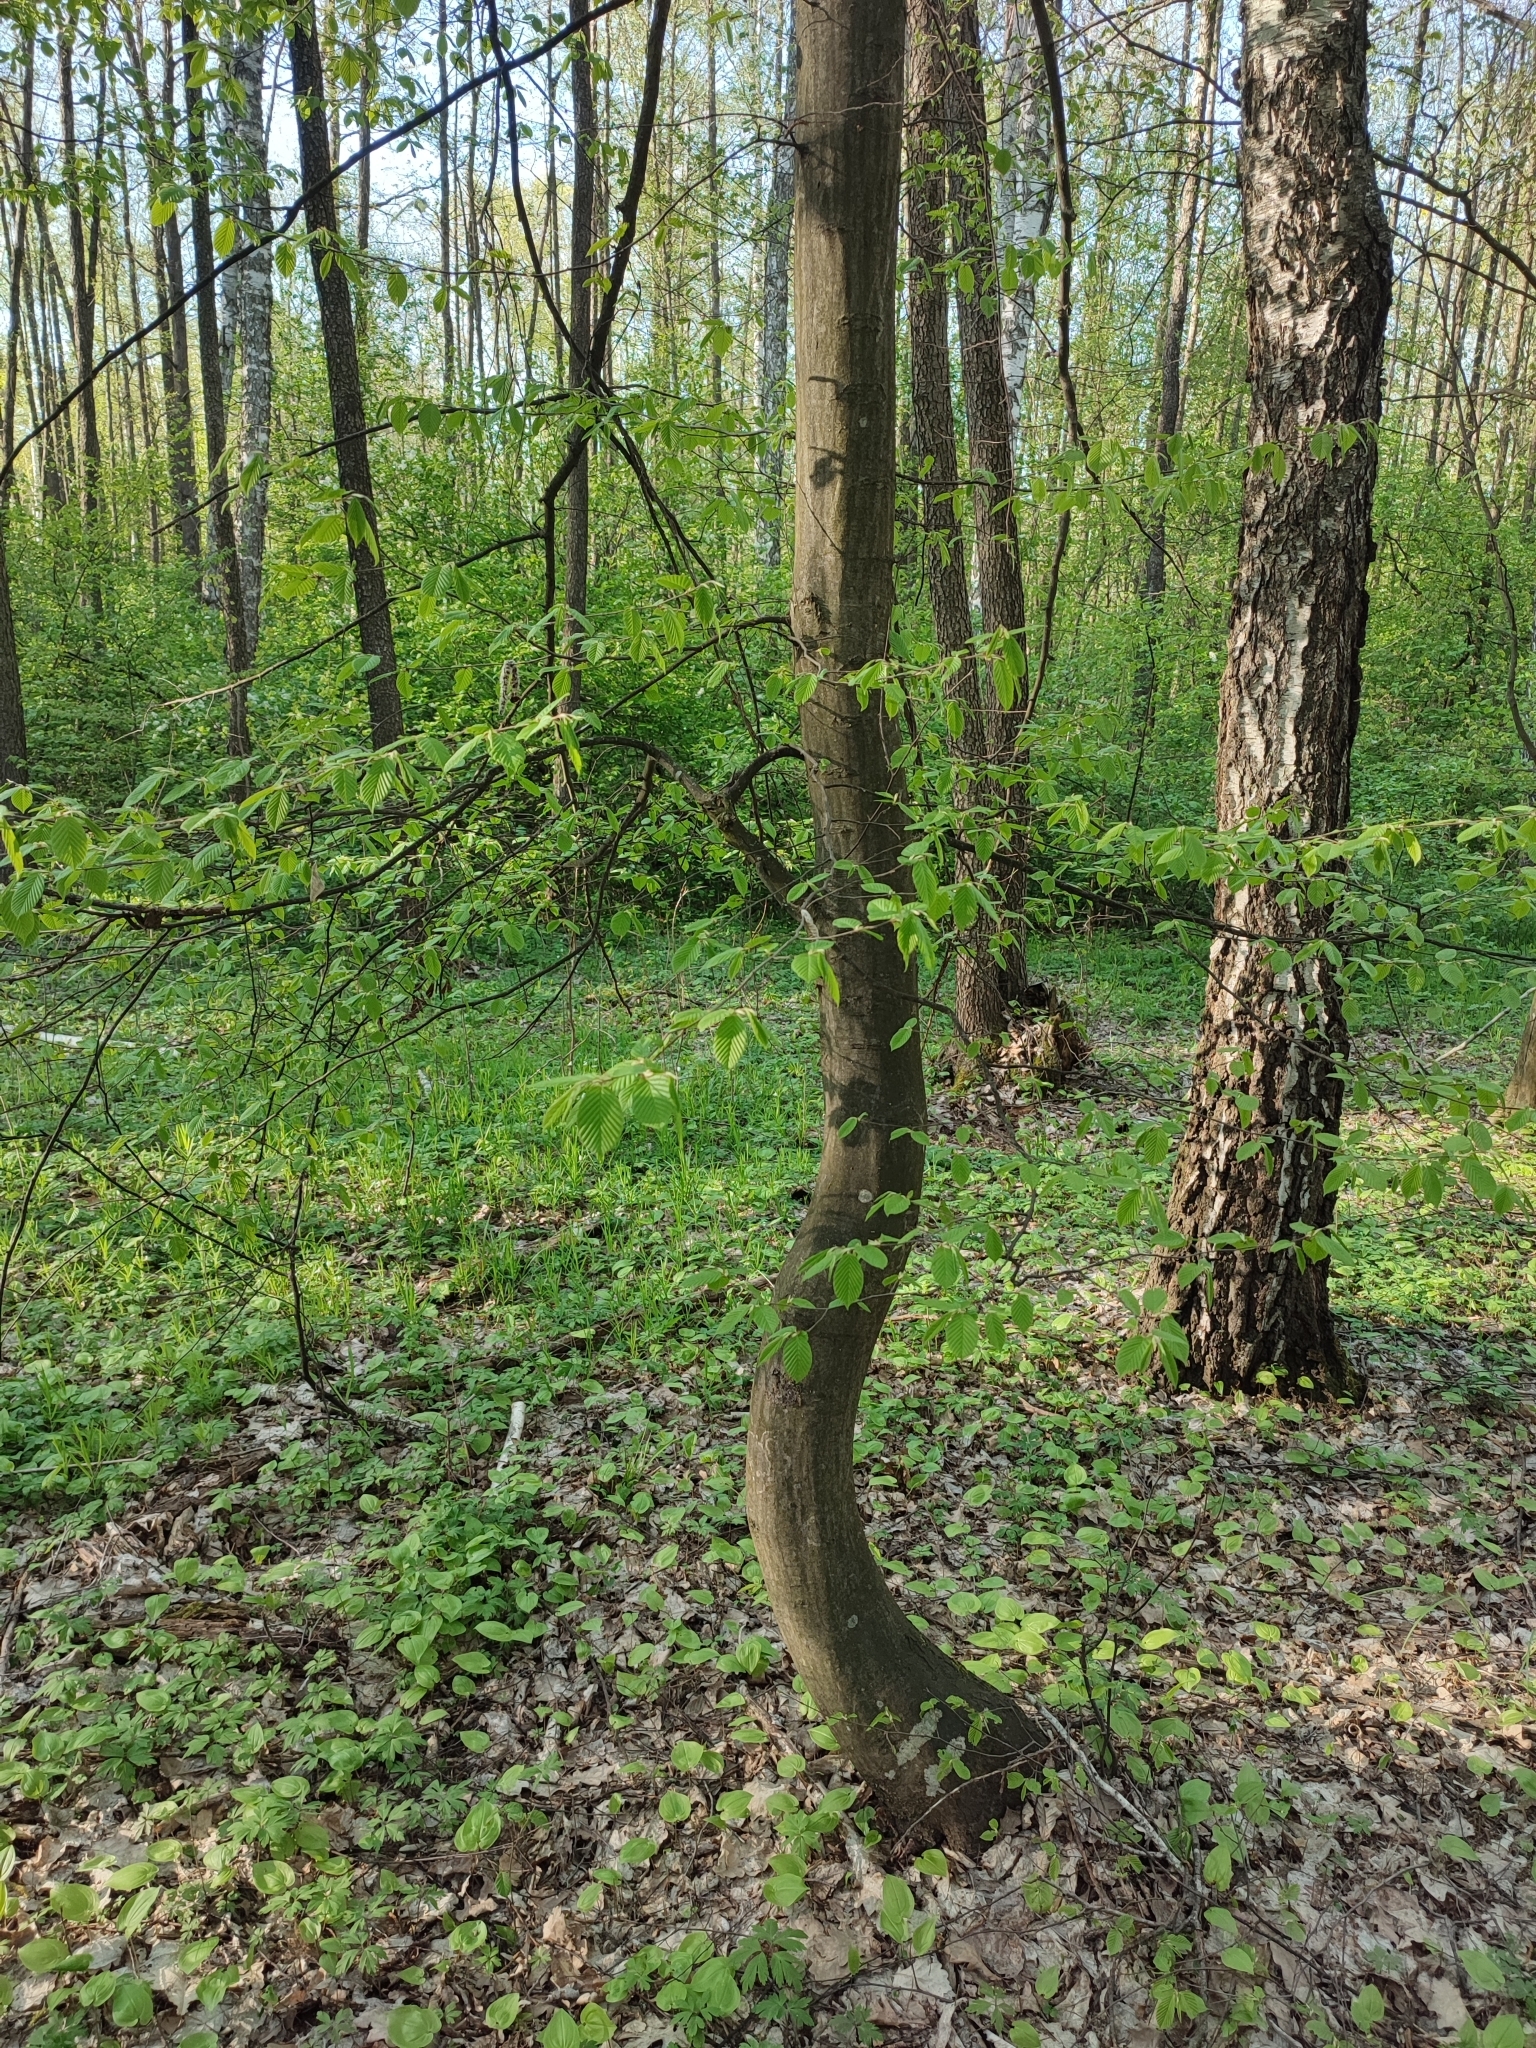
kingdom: Plantae
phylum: Tracheophyta
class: Magnoliopsida
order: Fagales
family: Betulaceae
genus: Carpinus
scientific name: Carpinus betulus
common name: Hornbeam
